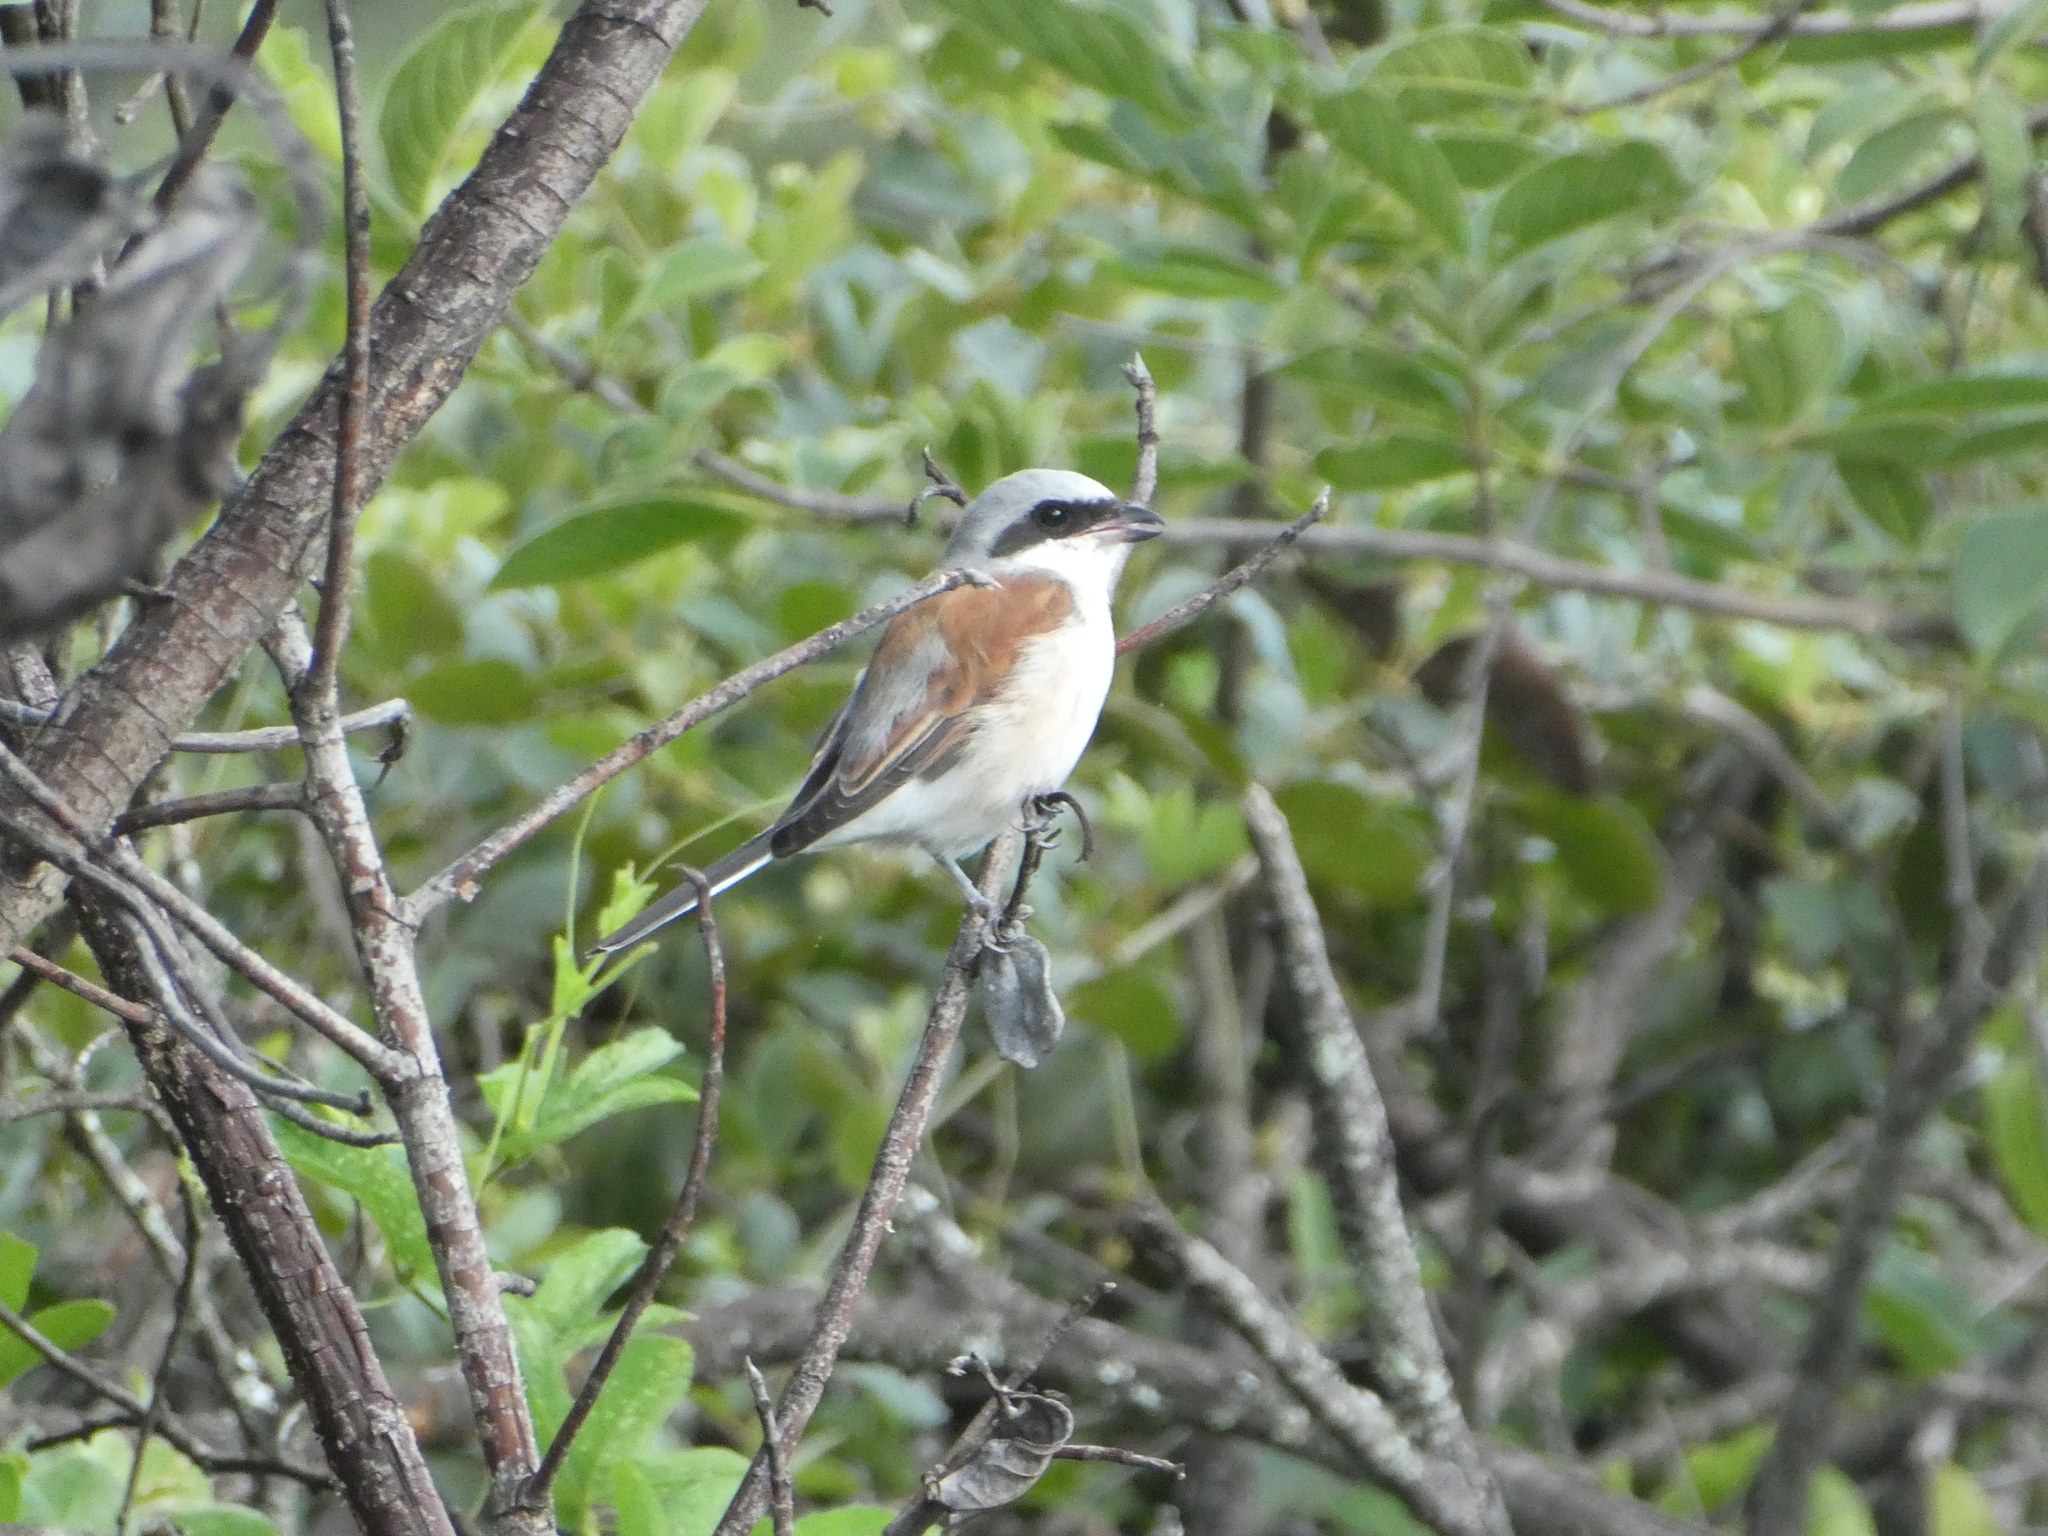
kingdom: Animalia
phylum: Chordata
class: Aves
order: Passeriformes
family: Laniidae
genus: Lanius
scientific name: Lanius collurio
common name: Red-backed shrike
